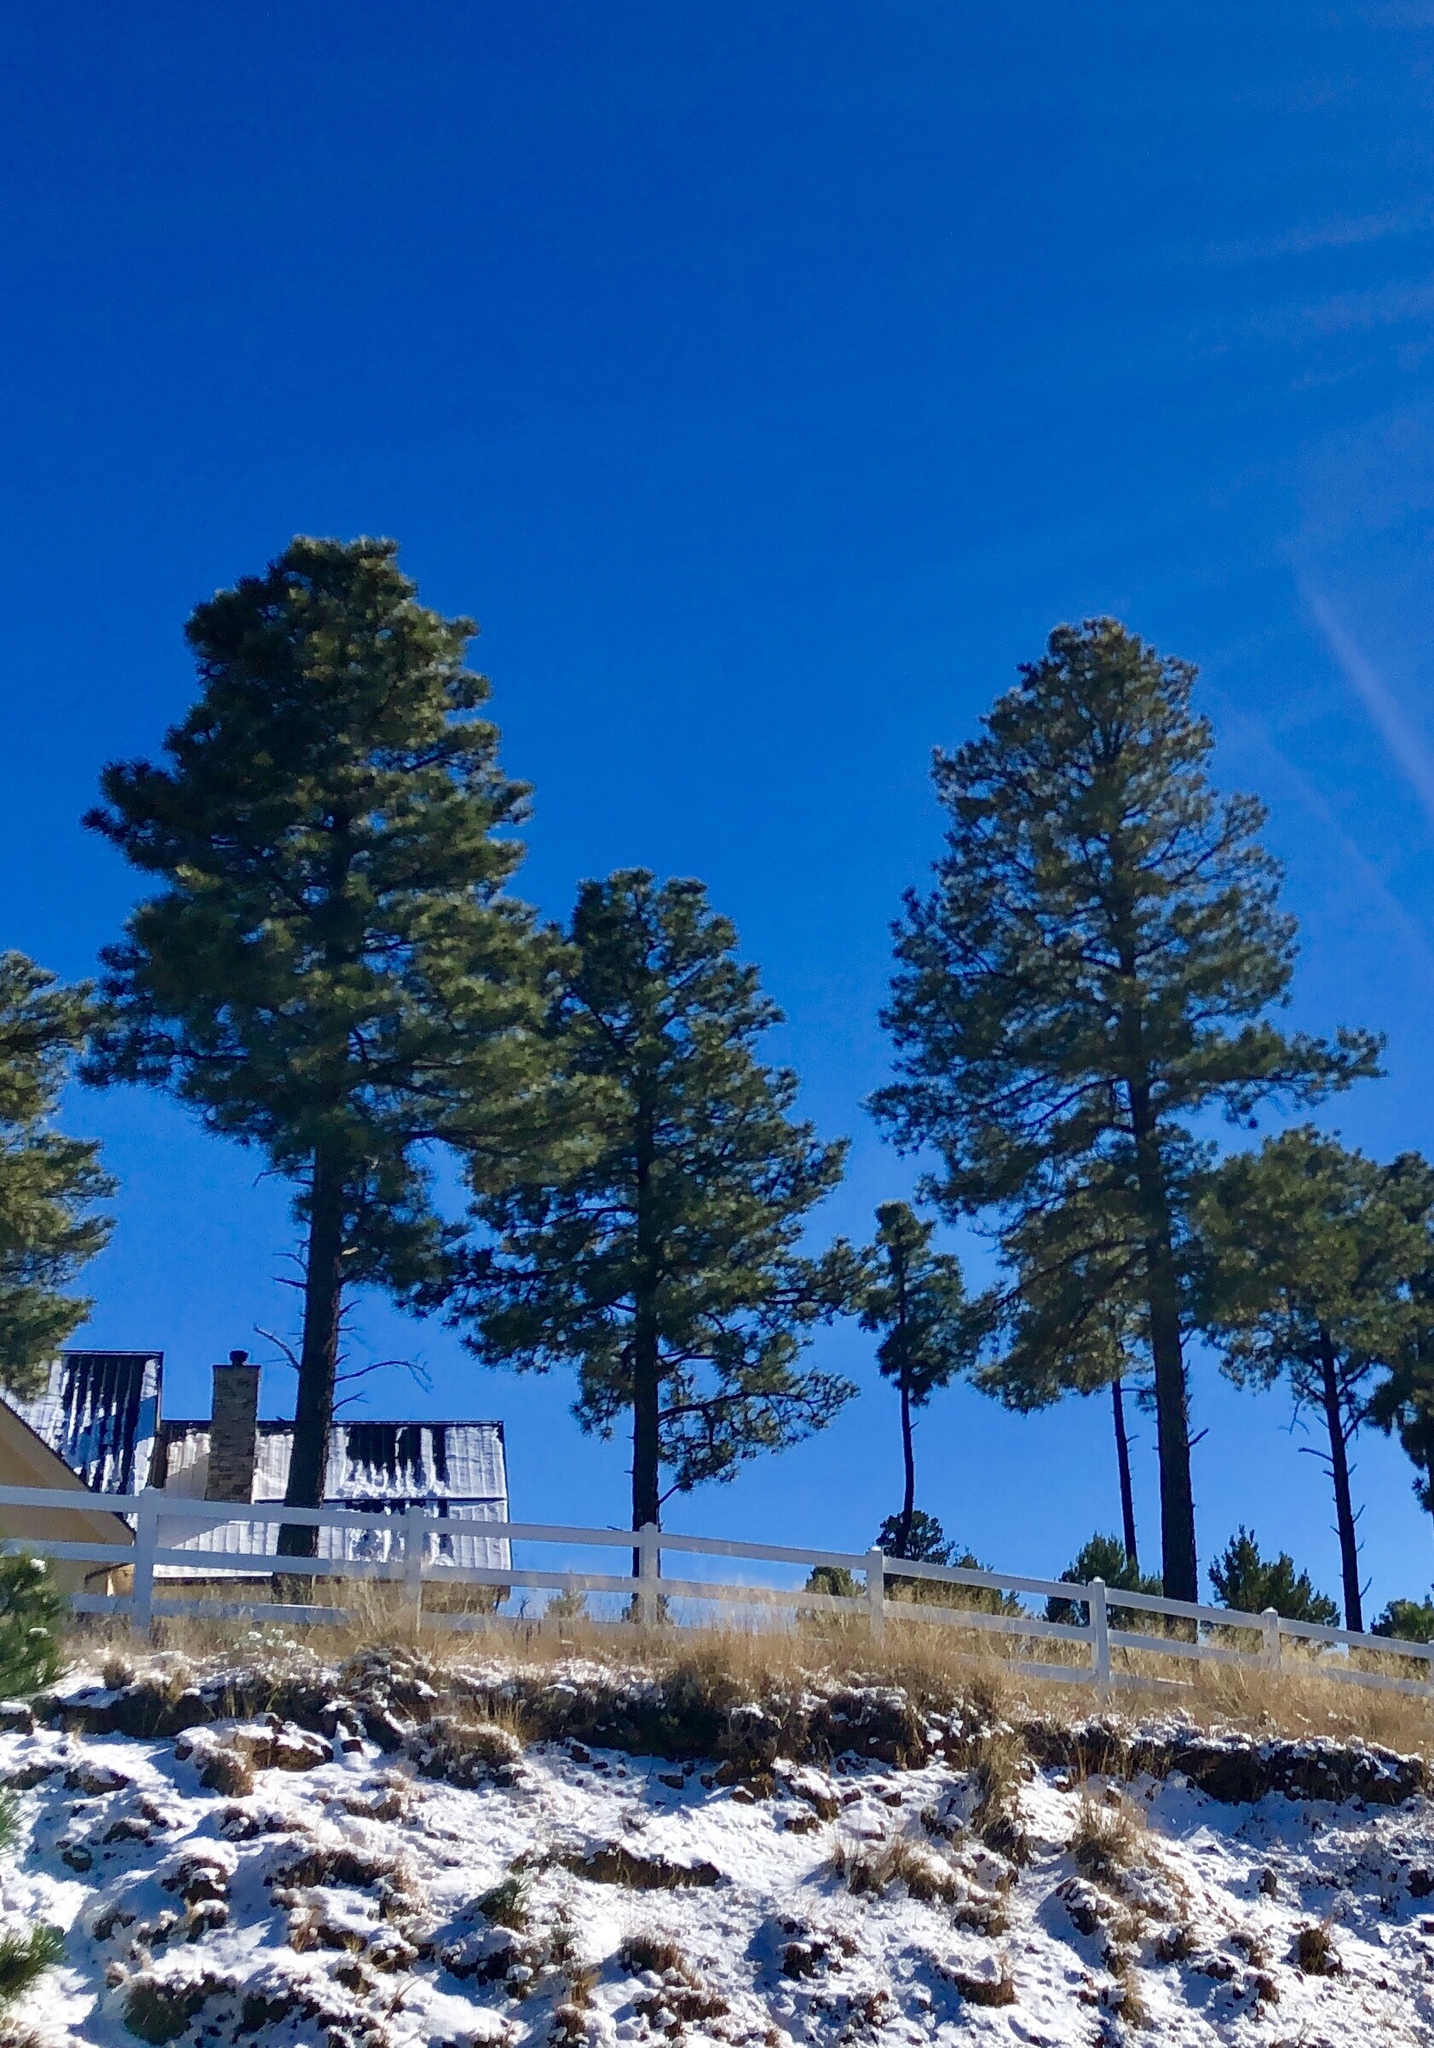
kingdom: Plantae
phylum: Tracheophyta
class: Pinopsida
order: Pinales
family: Pinaceae
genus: Pinus
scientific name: Pinus ponderosa
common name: Western yellow-pine
